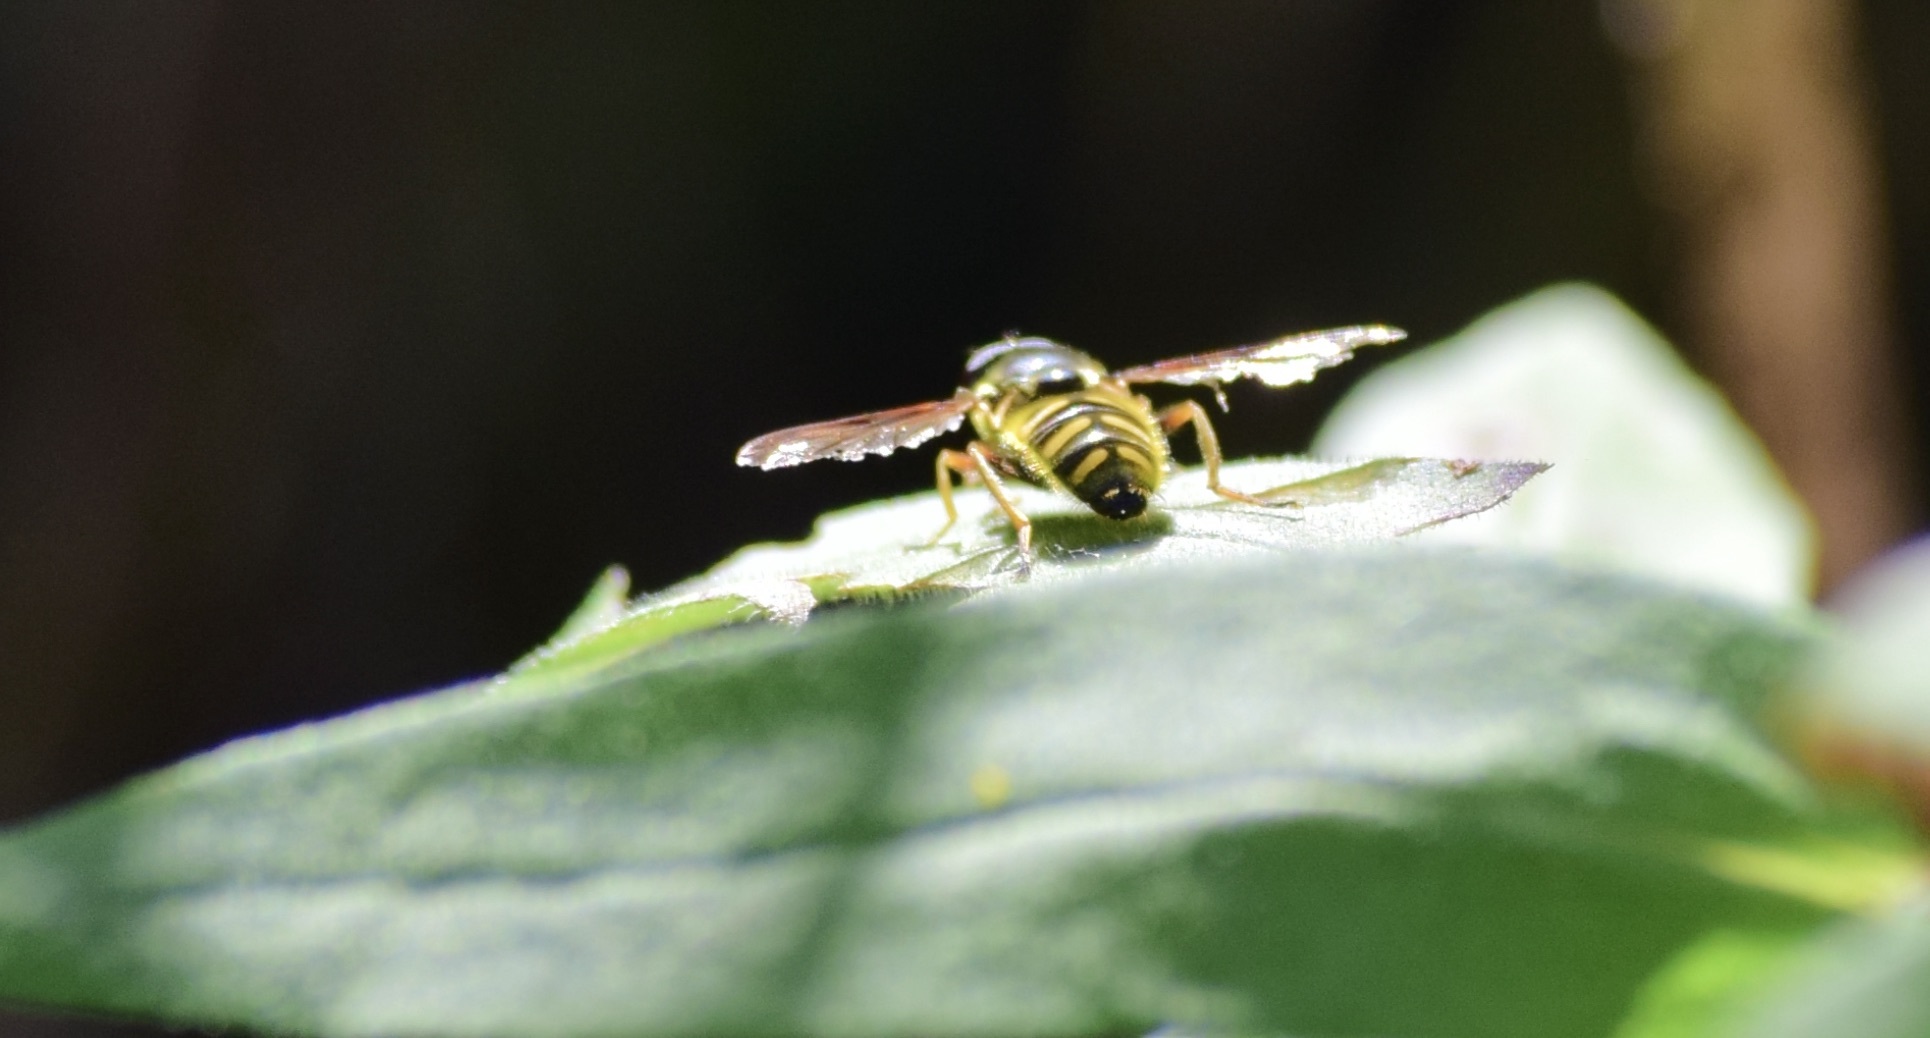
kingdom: Animalia
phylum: Arthropoda
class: Insecta
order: Diptera
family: Syrphidae
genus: Sericomyia
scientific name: Sericomyia chrysotoxoides
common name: Oblique-banded pond fly
